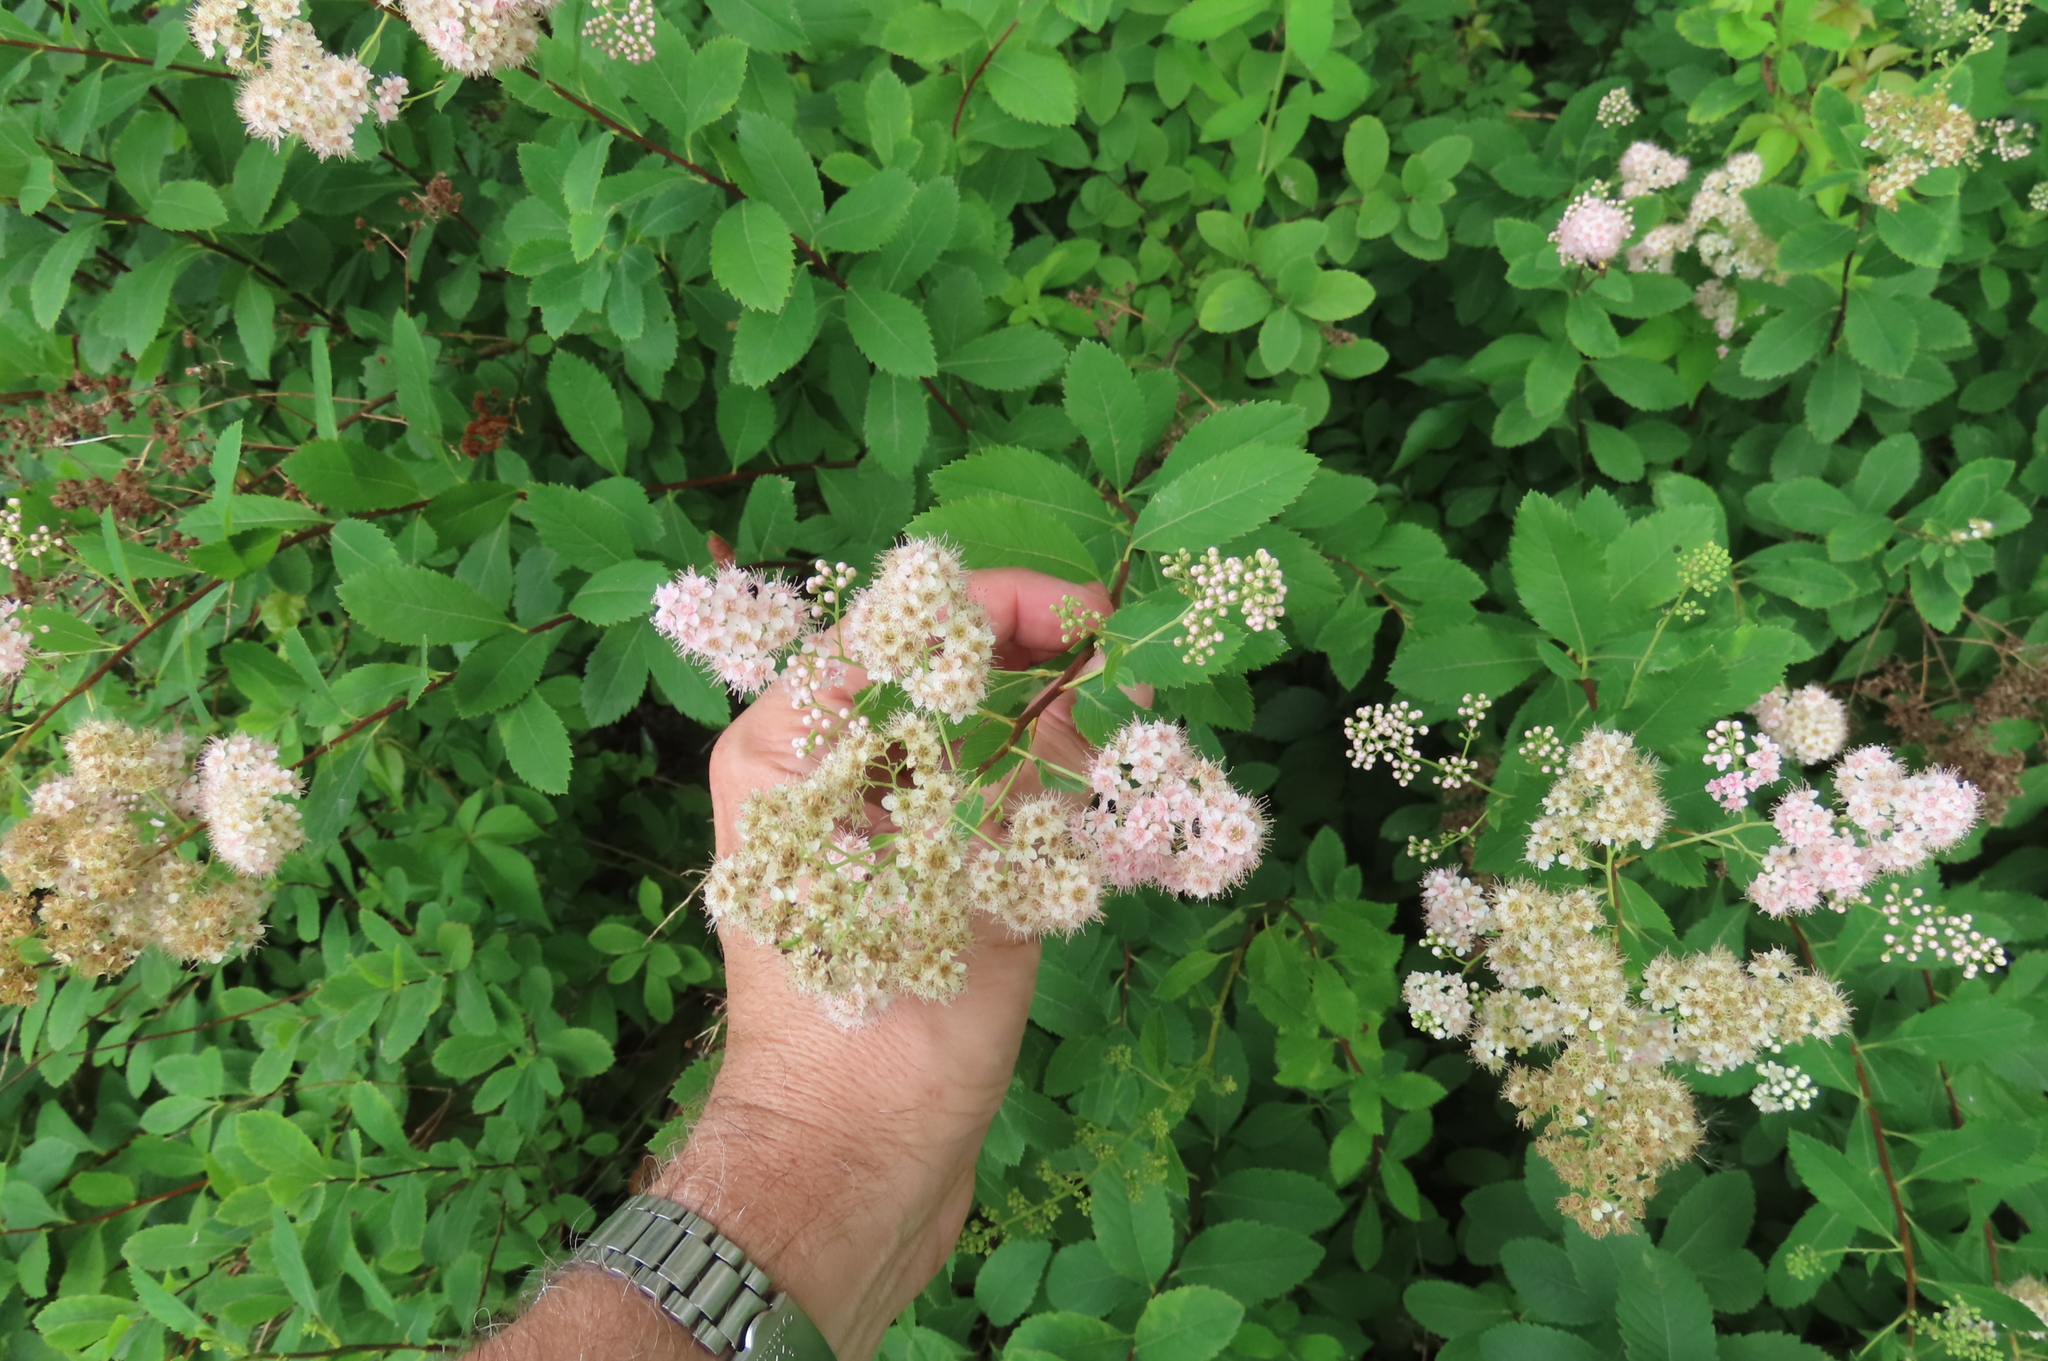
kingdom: Plantae
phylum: Tracheophyta
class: Magnoliopsida
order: Rosales
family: Rosaceae
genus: Spiraea
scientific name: Spiraea alba
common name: Pale bridewort
